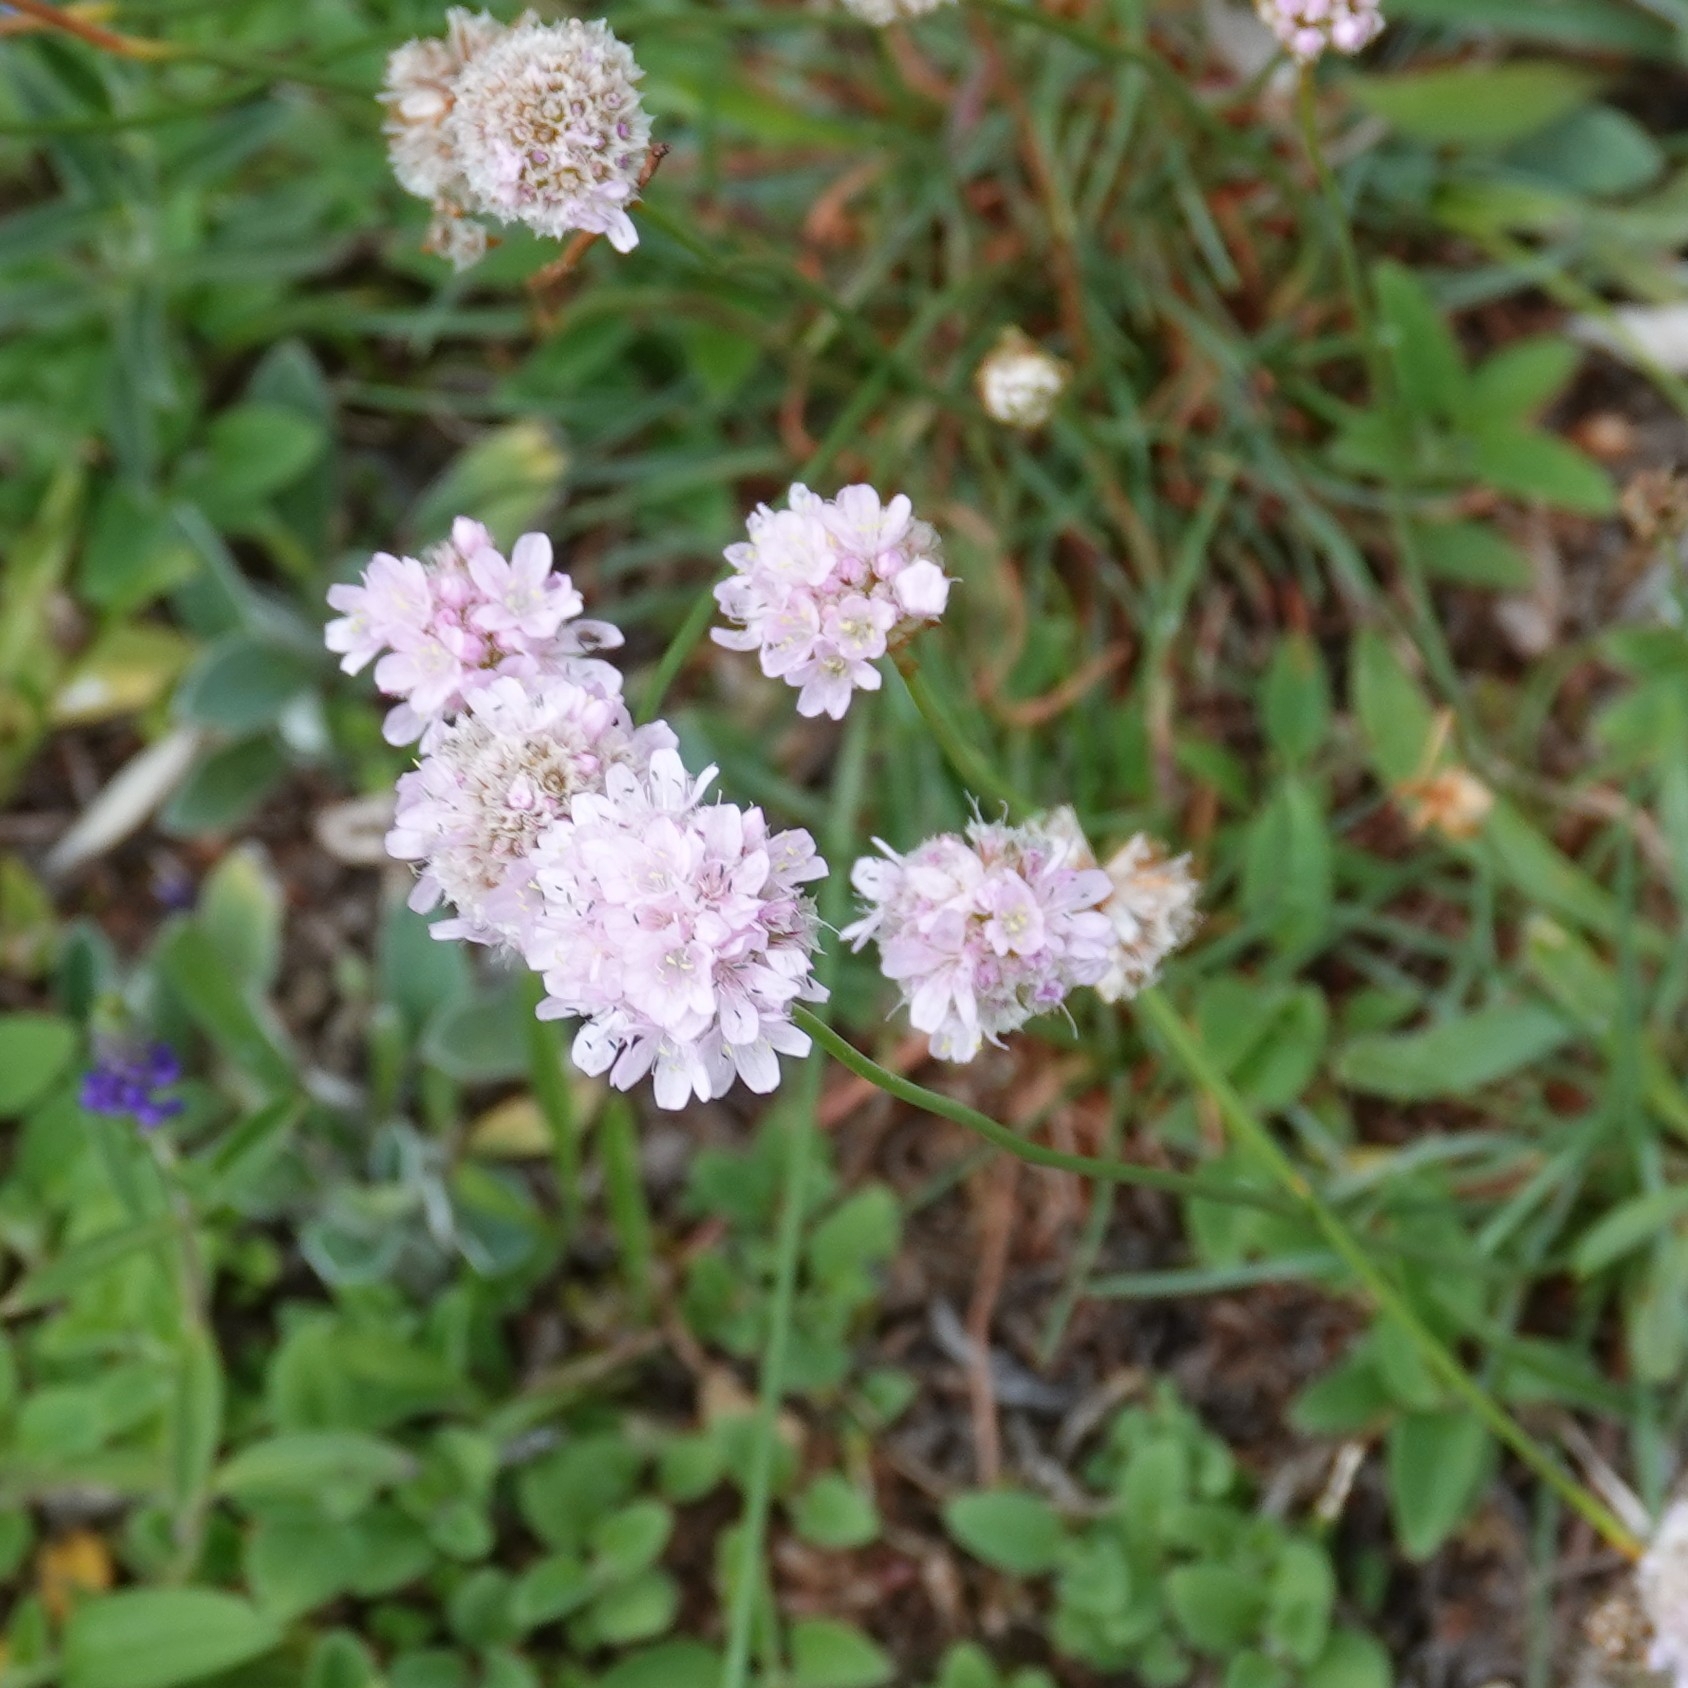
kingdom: Plantae
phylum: Tracheophyta
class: Magnoliopsida
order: Caryophyllales
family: Plumbaginaceae
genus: Armeria
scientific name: Armeria maritima
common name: Thrift
